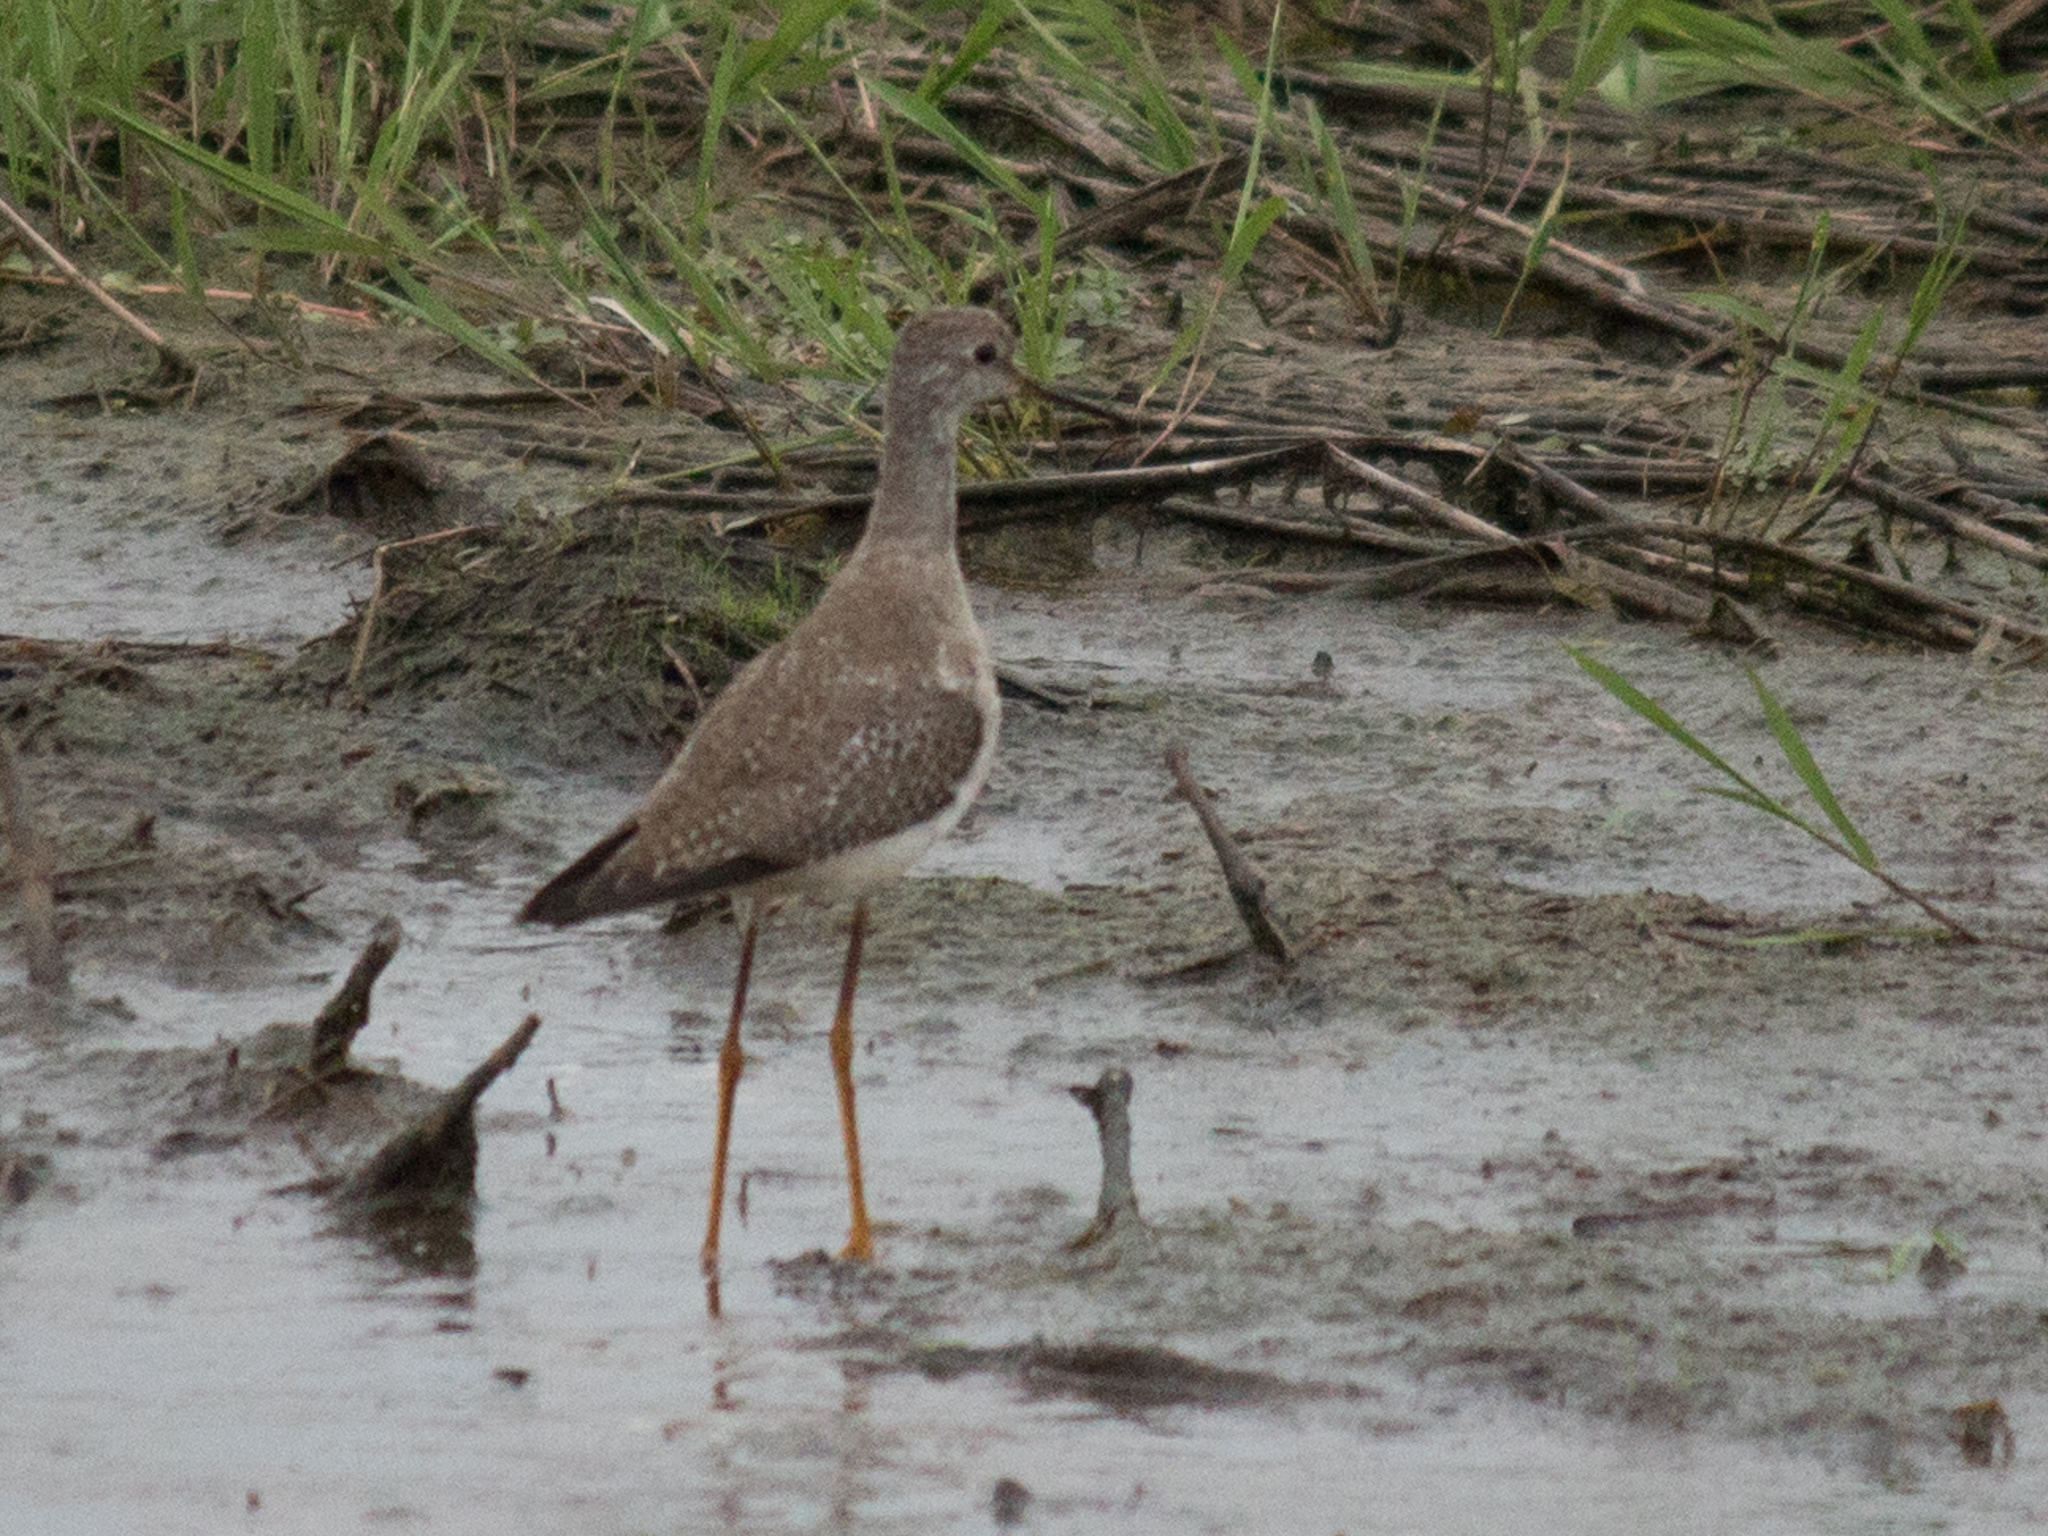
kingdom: Animalia
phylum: Chordata
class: Aves
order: Charadriiformes
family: Scolopacidae
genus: Tringa
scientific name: Tringa flavipes
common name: Lesser yellowlegs
